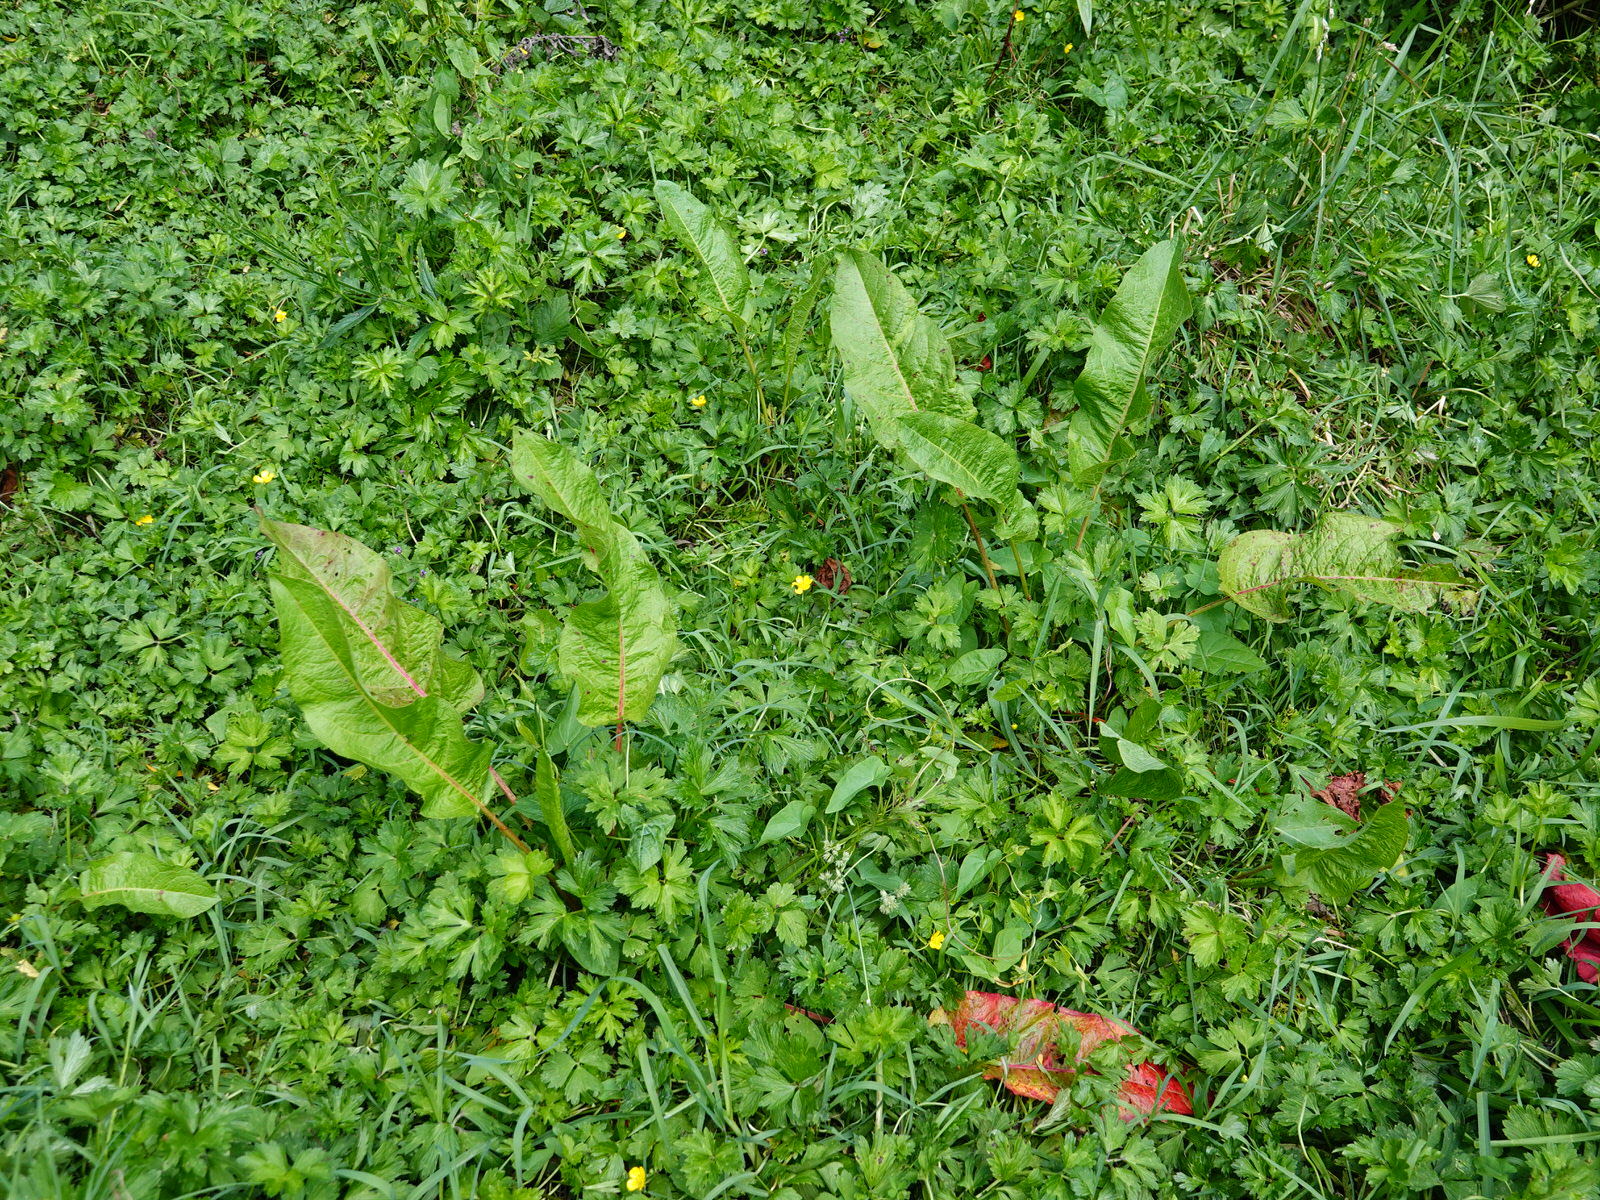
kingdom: Plantae
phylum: Tracheophyta
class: Magnoliopsida
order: Caryophyllales
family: Polygonaceae
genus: Rumex
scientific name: Rumex obtusifolius
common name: Bitter dock
